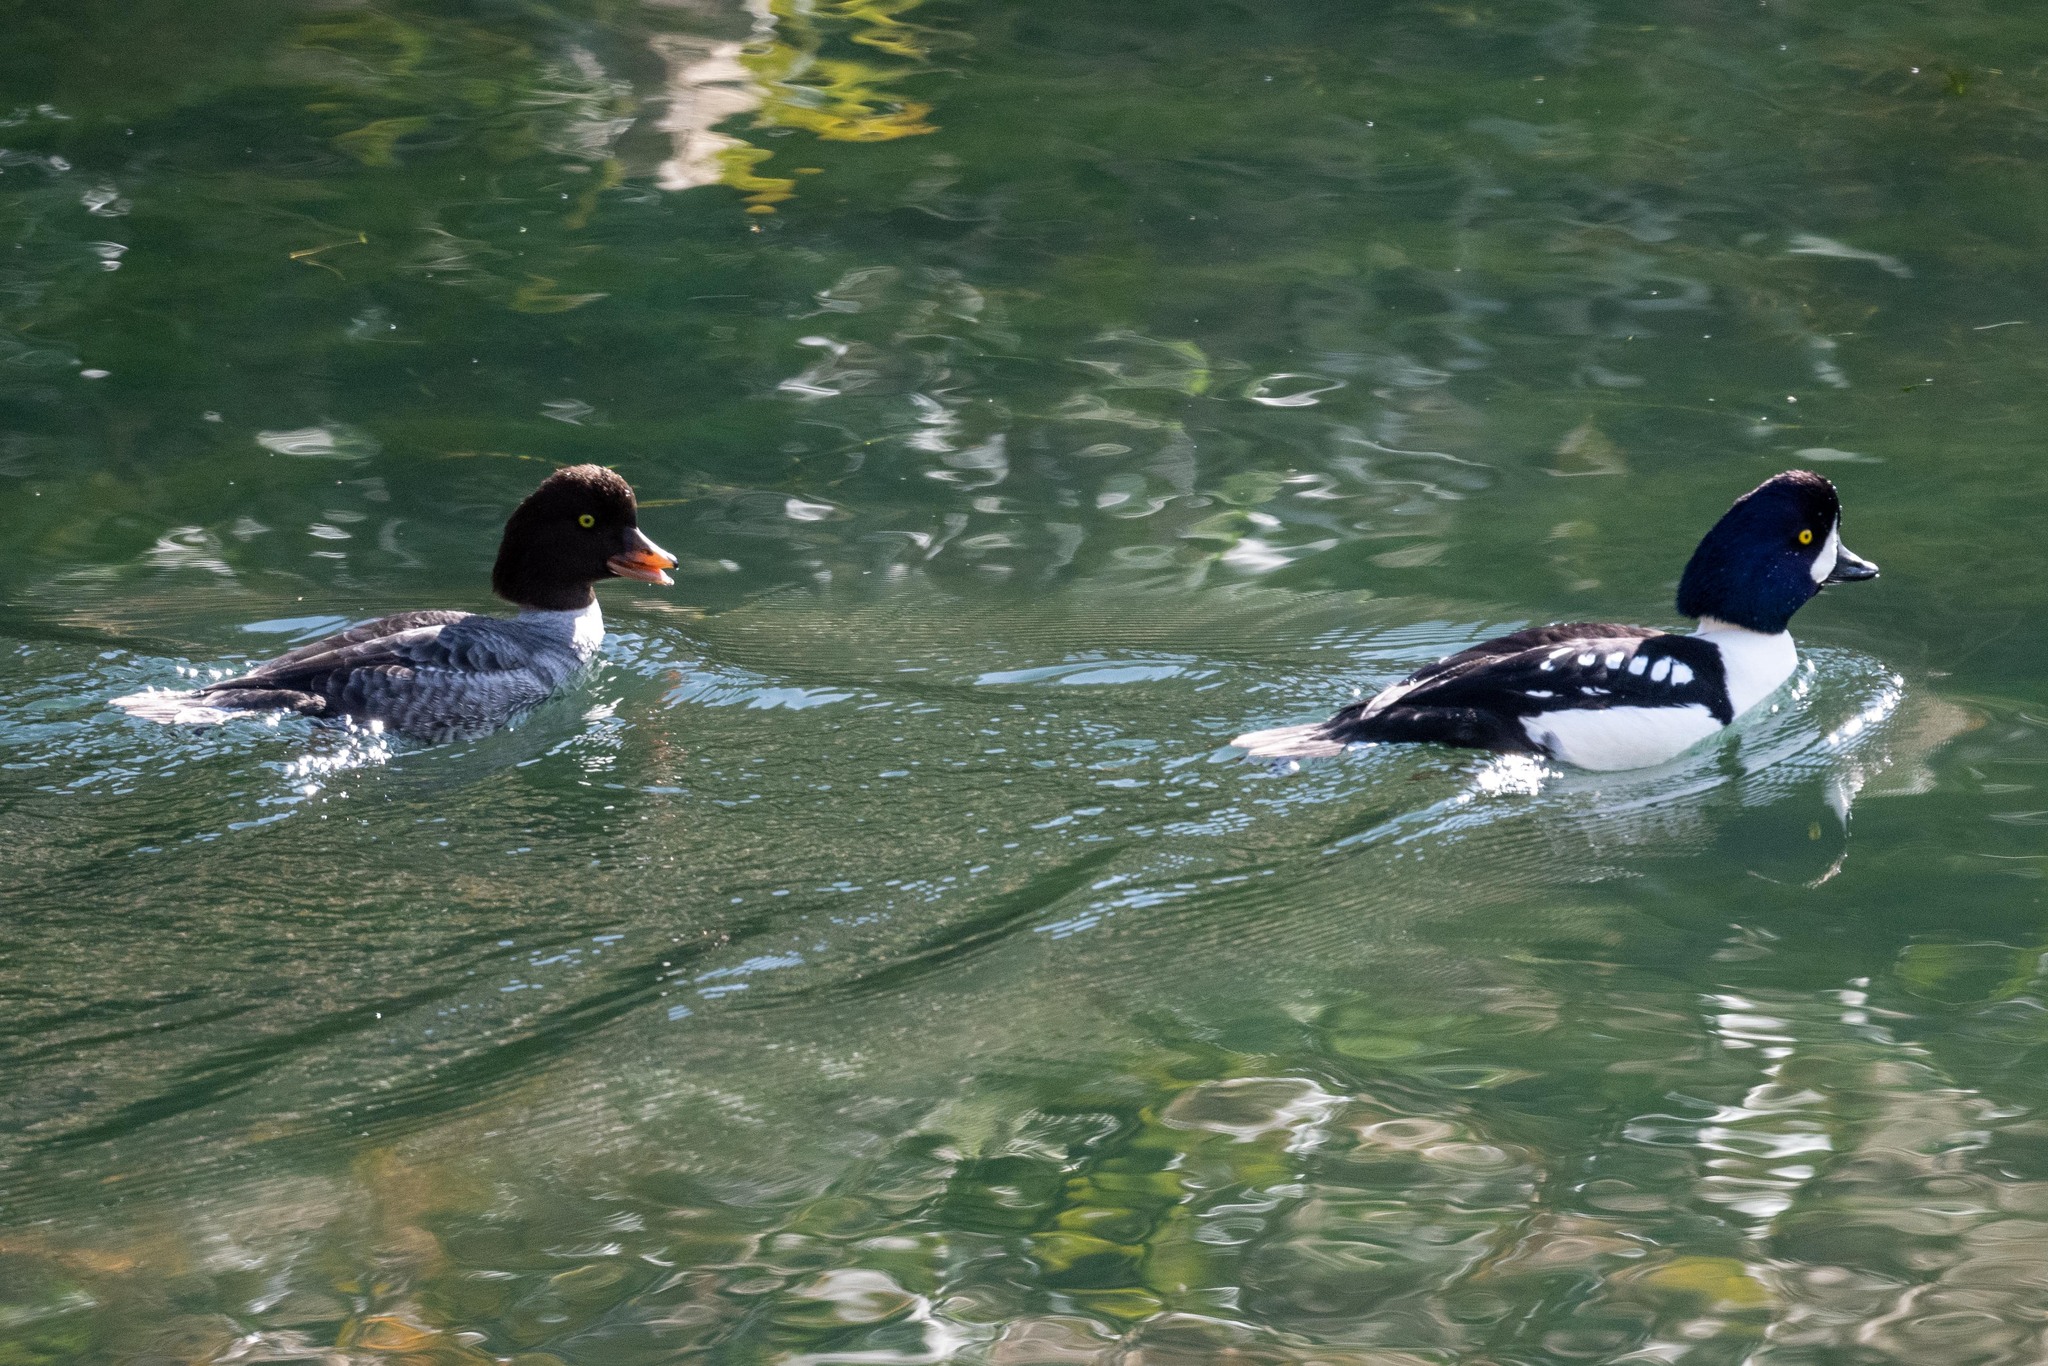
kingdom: Animalia
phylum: Chordata
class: Aves
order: Anseriformes
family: Anatidae
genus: Bucephala
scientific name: Bucephala islandica
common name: Barrow's goldeneye
